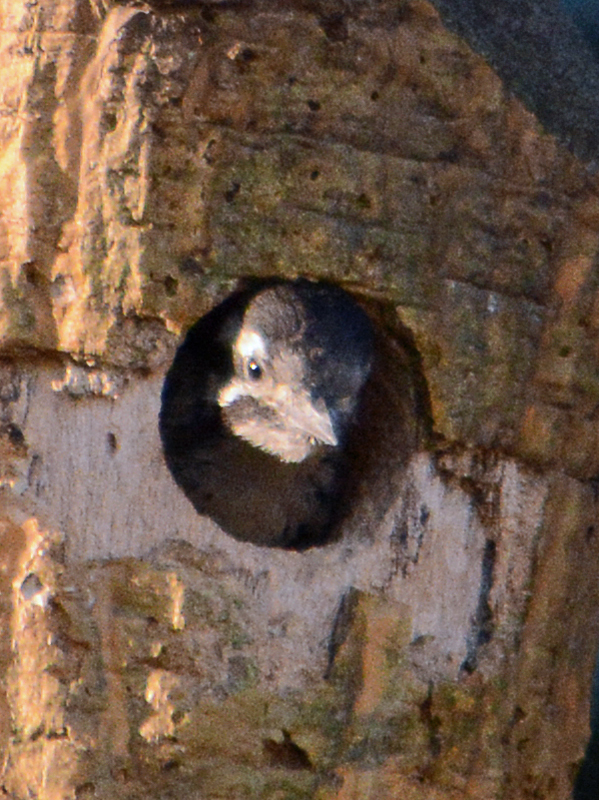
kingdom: Animalia
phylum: Chordata
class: Aves
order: Piciformes
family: Picidae
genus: Dryobates
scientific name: Dryobates scalaris
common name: Ladder-backed woodpecker
